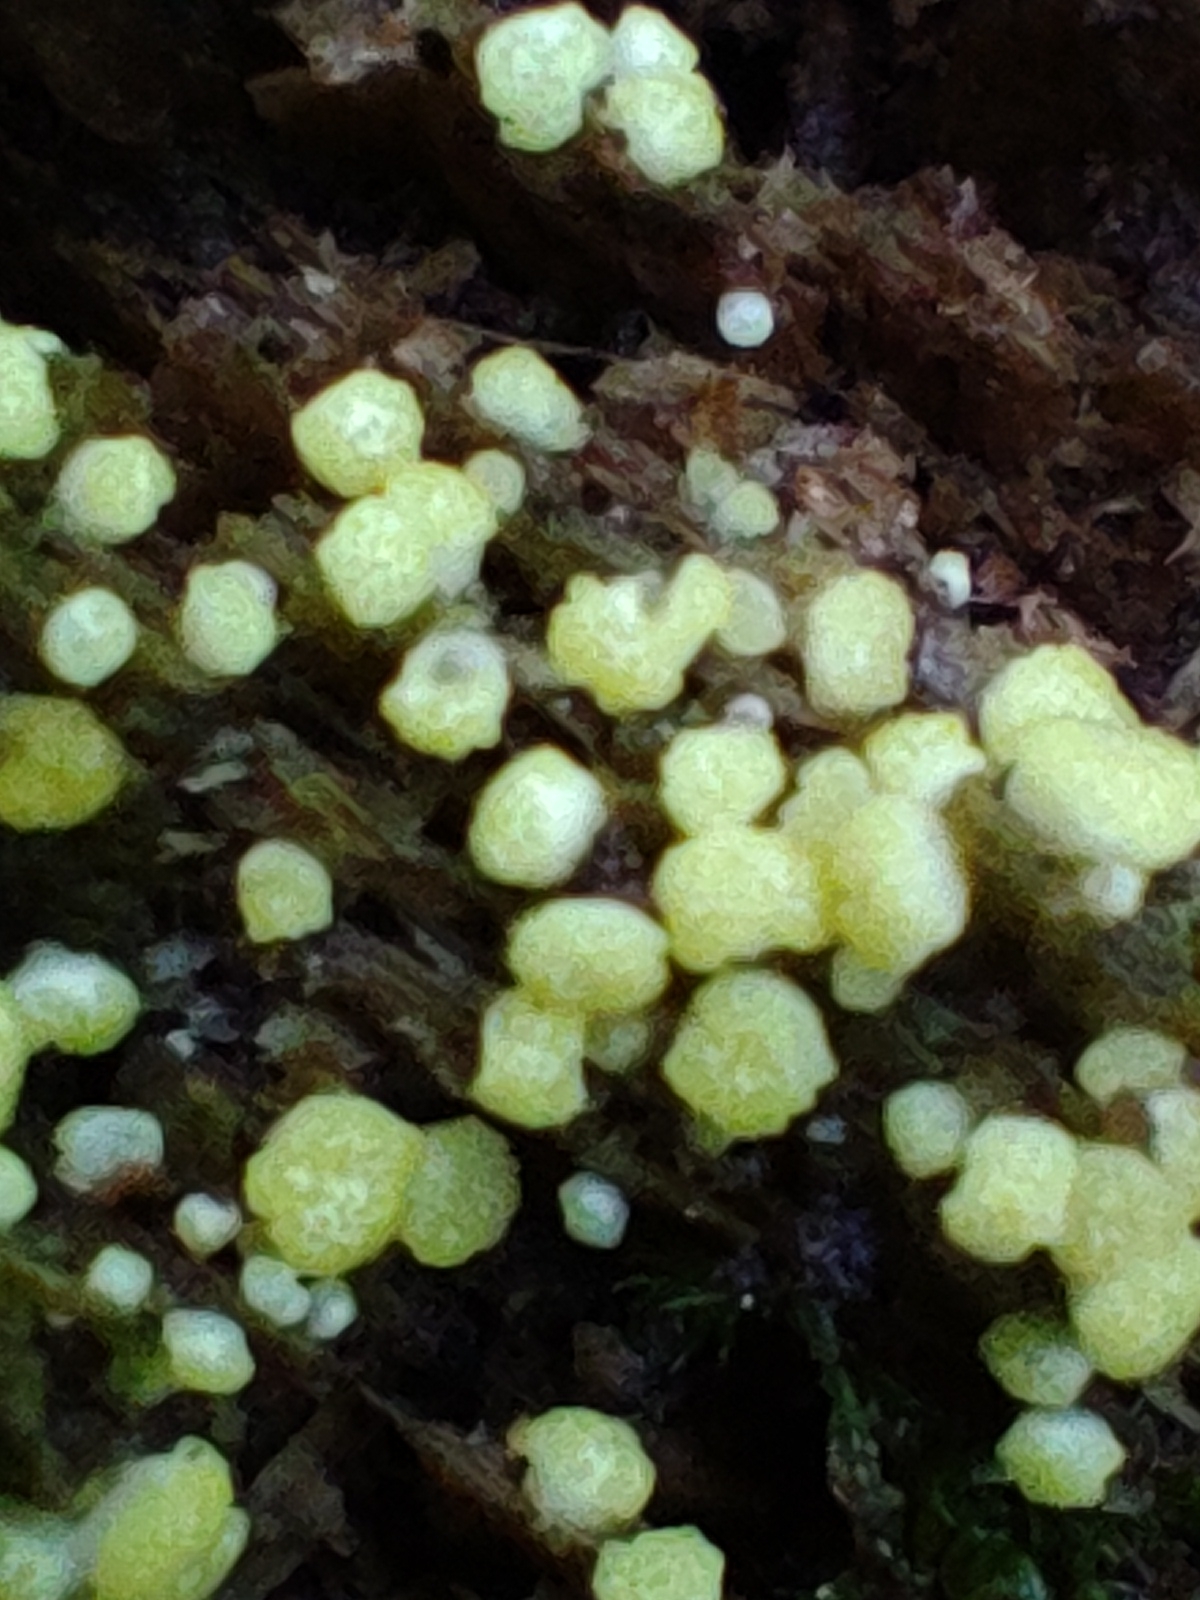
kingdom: Fungi
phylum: Ascomycota
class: Sordariomycetes
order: Hypocreales
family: Hypocreaceae
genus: Trichoderma
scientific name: Trichoderma chromospermum
